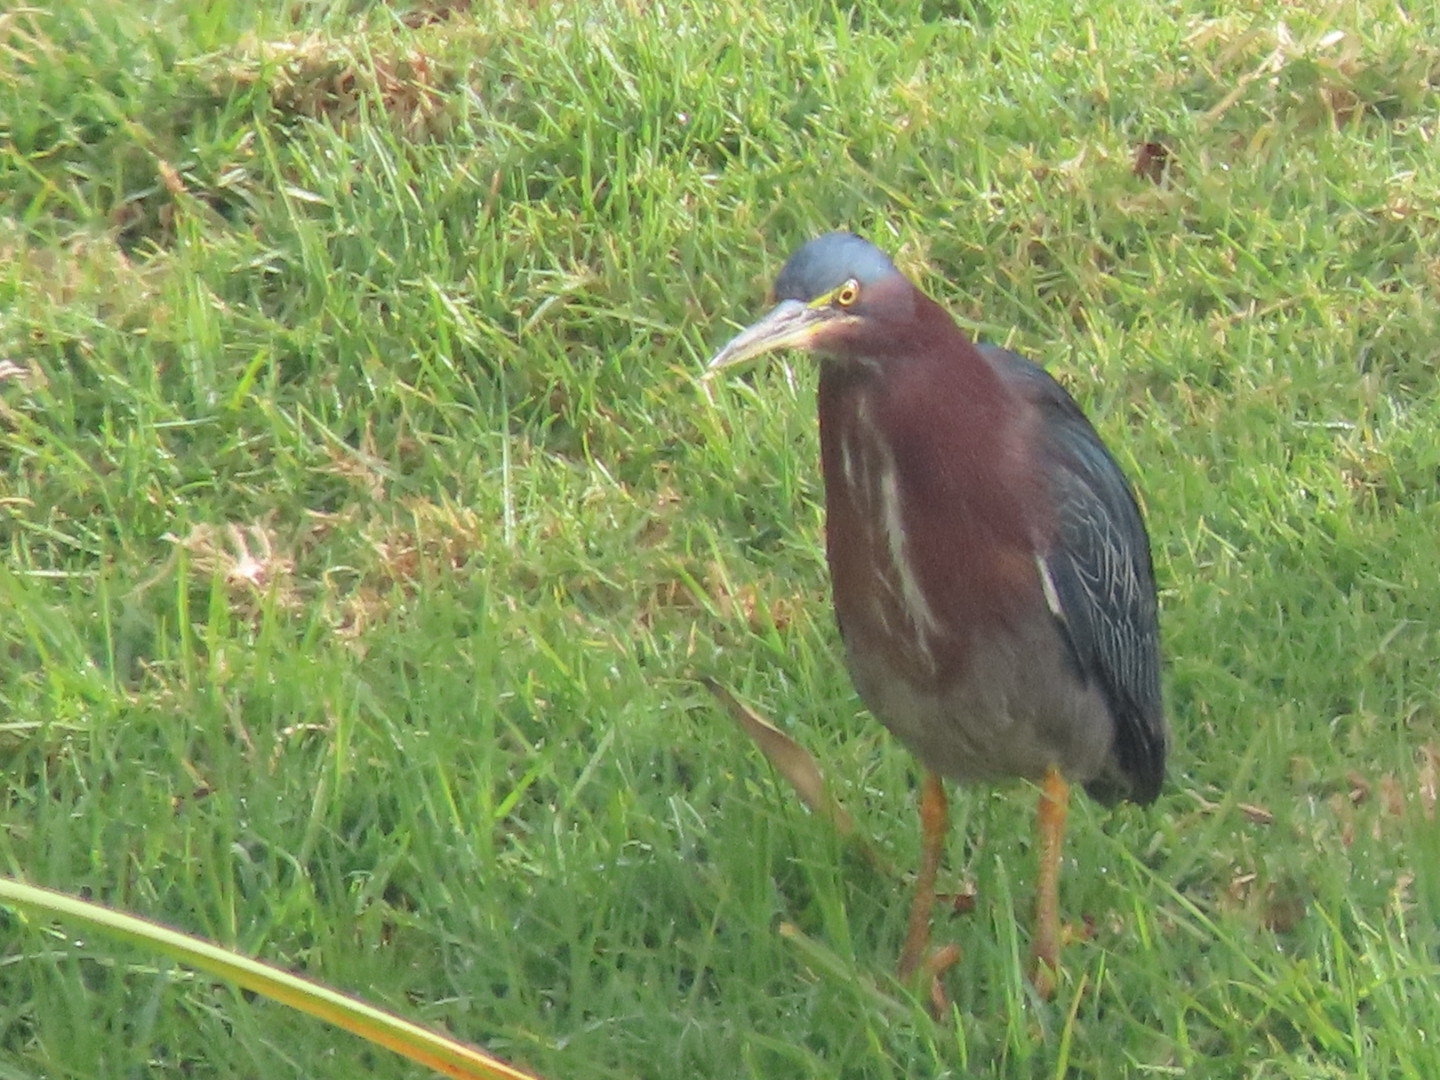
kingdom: Animalia
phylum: Chordata
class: Aves
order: Pelecaniformes
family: Ardeidae
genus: Butorides
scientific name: Butorides virescens
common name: Green heron
